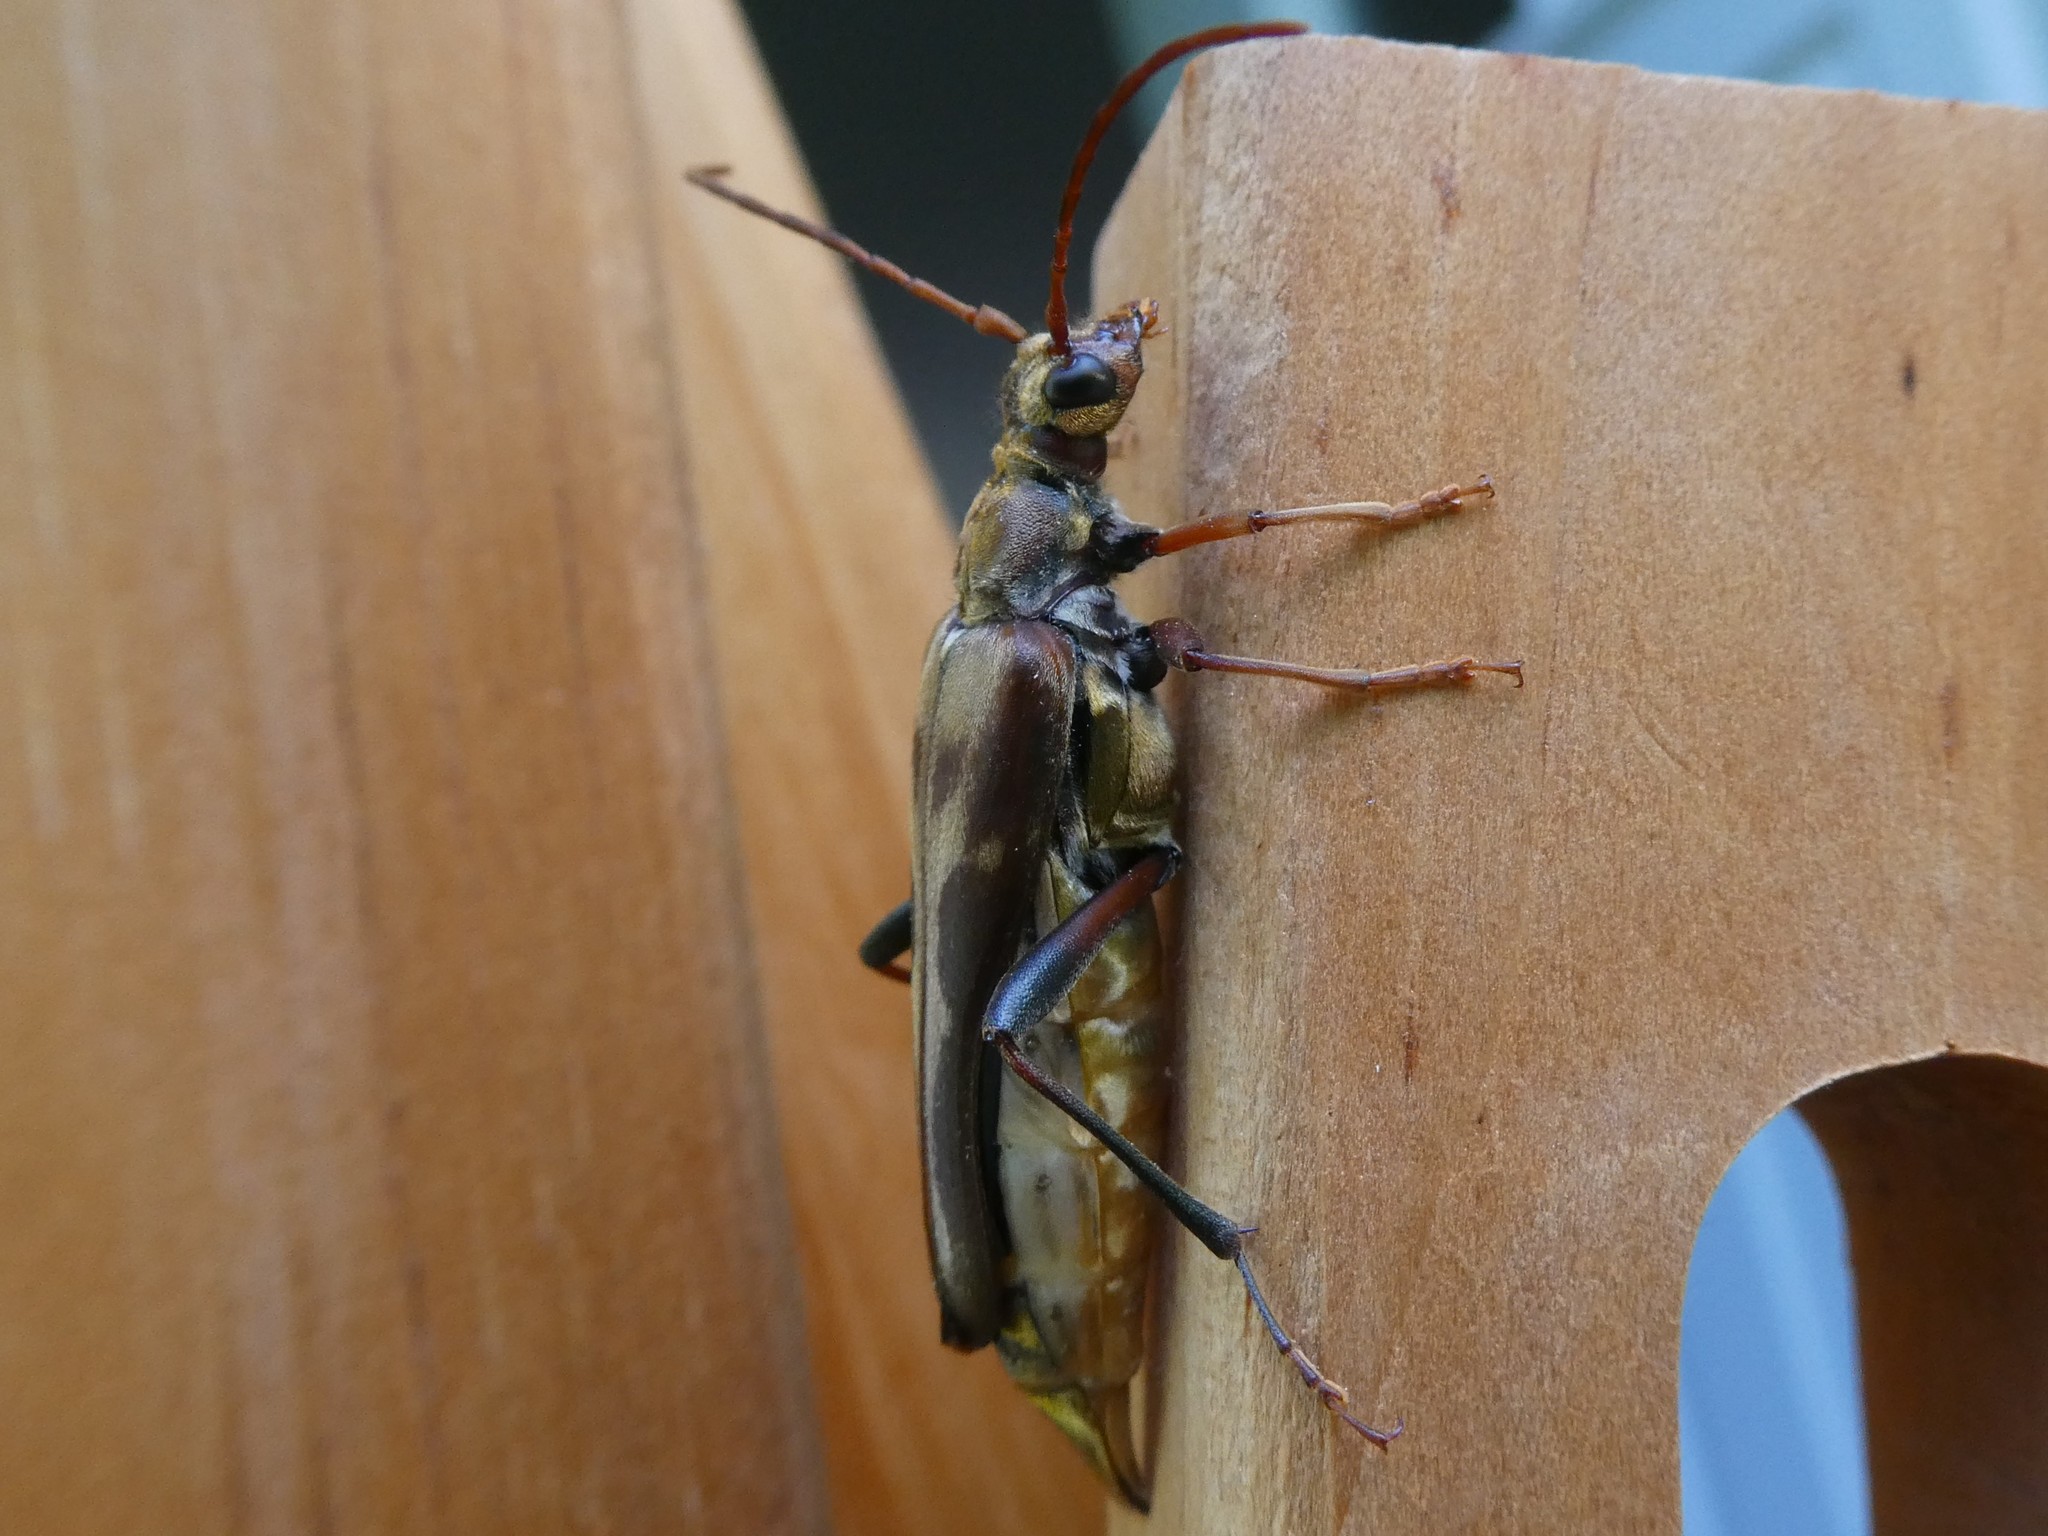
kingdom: Animalia
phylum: Arthropoda
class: Insecta
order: Coleoptera
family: Cerambycidae
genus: Bellamira
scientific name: Bellamira scalaris
